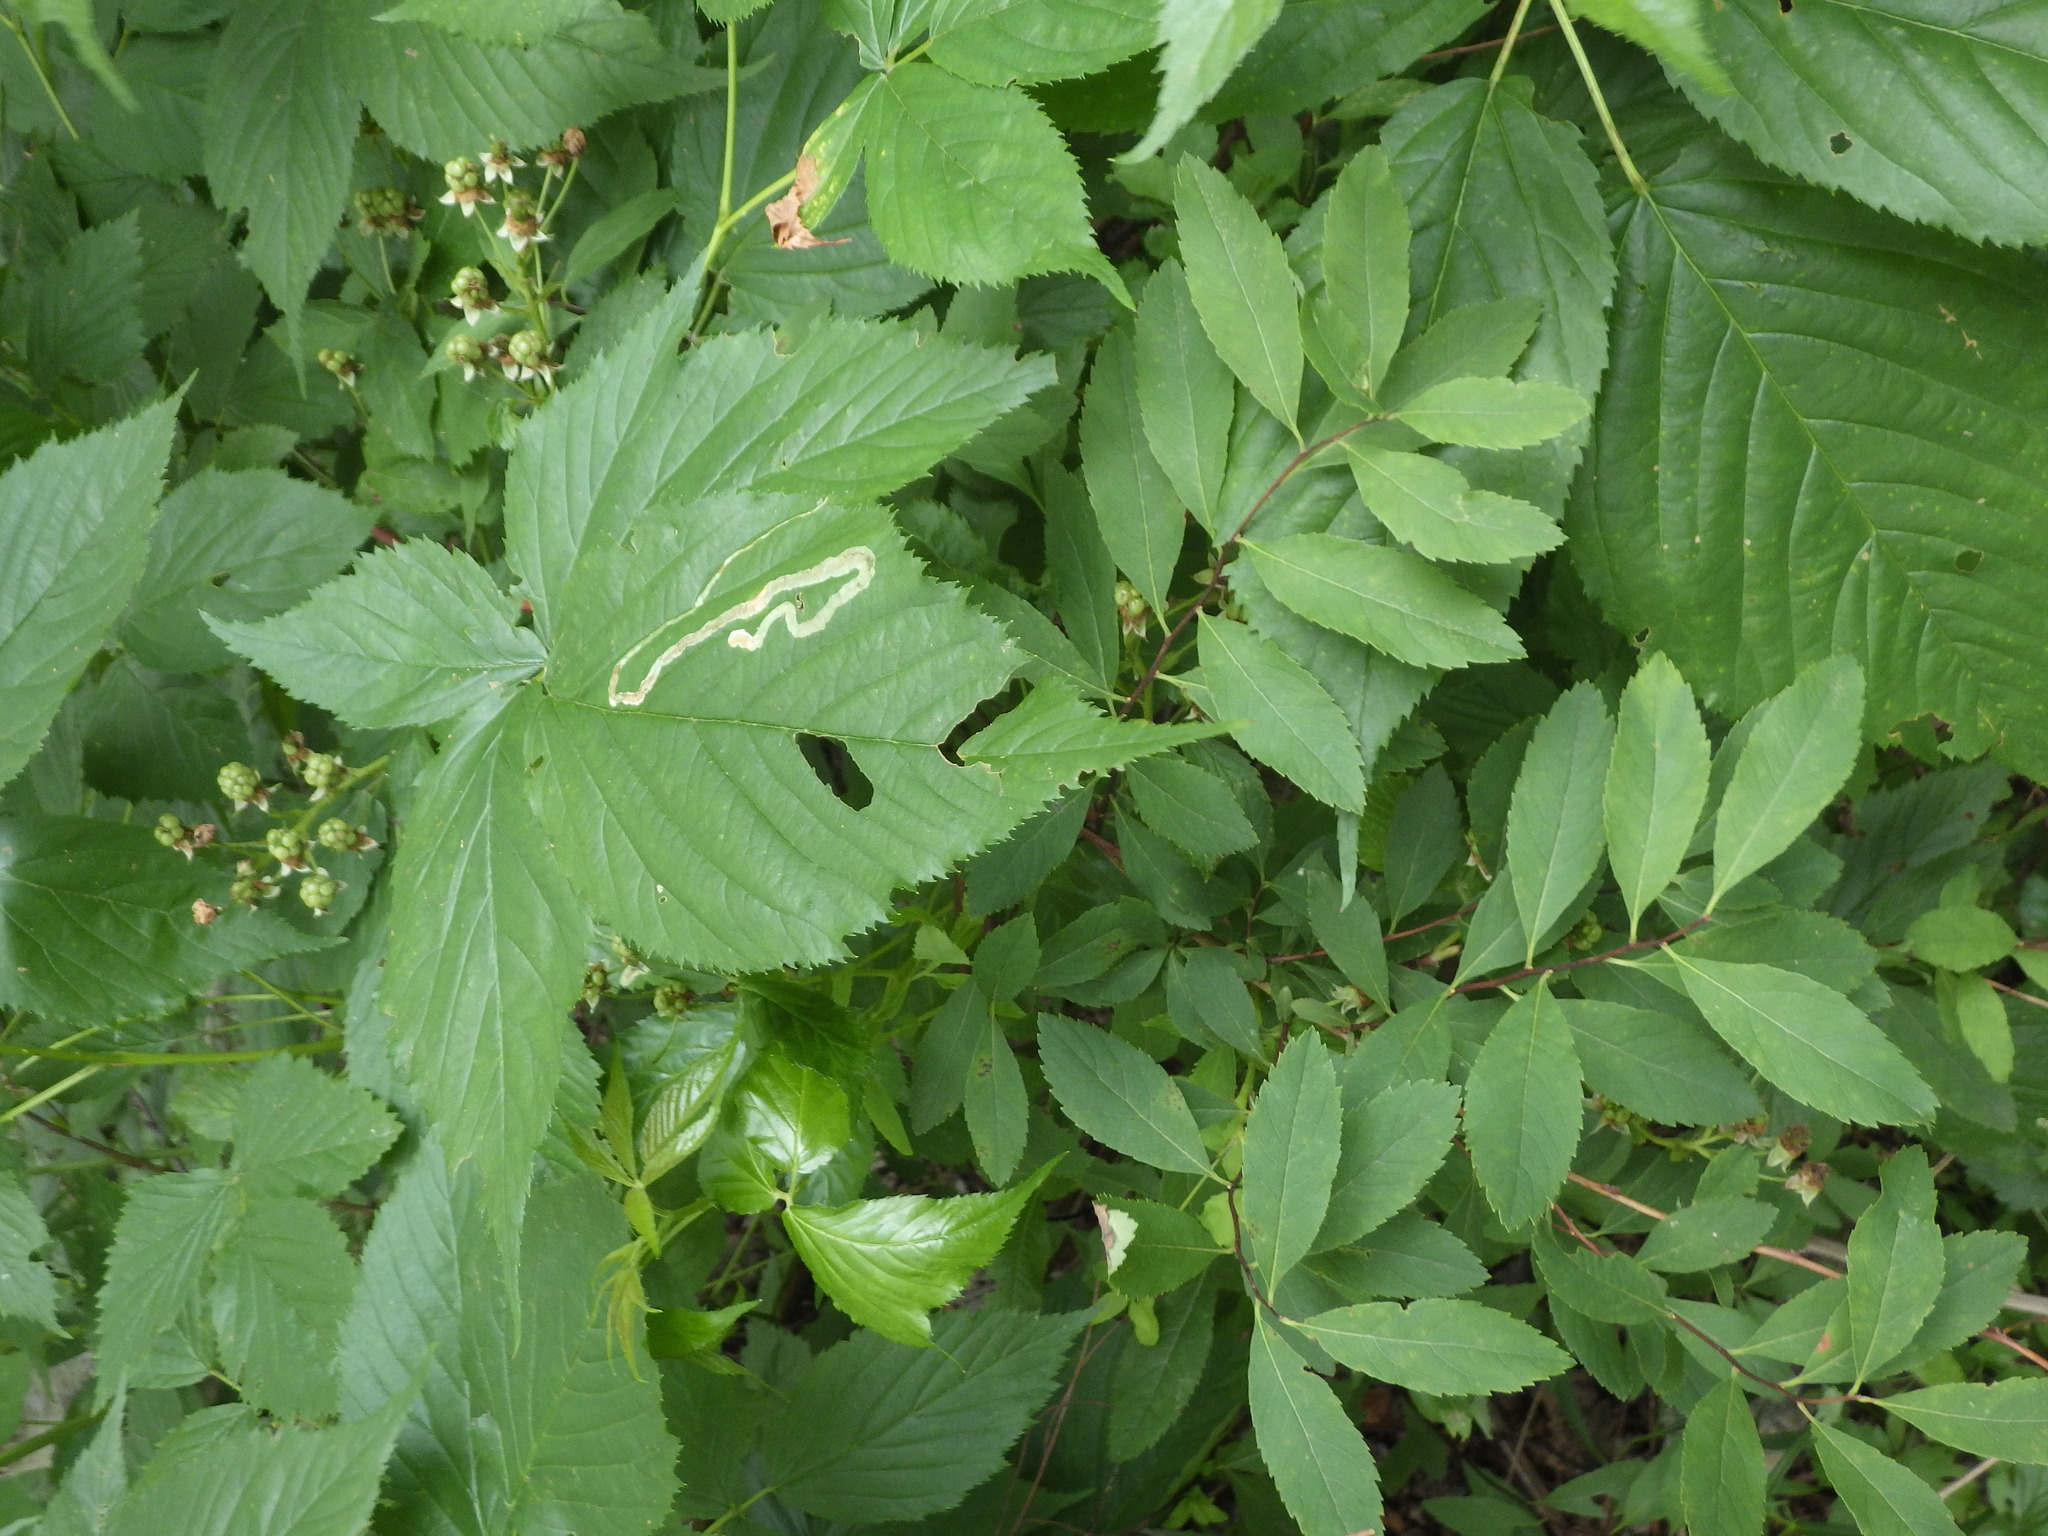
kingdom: Animalia
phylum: Arthropoda
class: Insecta
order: Diptera
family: Agromyzidae
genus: Agromyza
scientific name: Agromyza vockerothi
